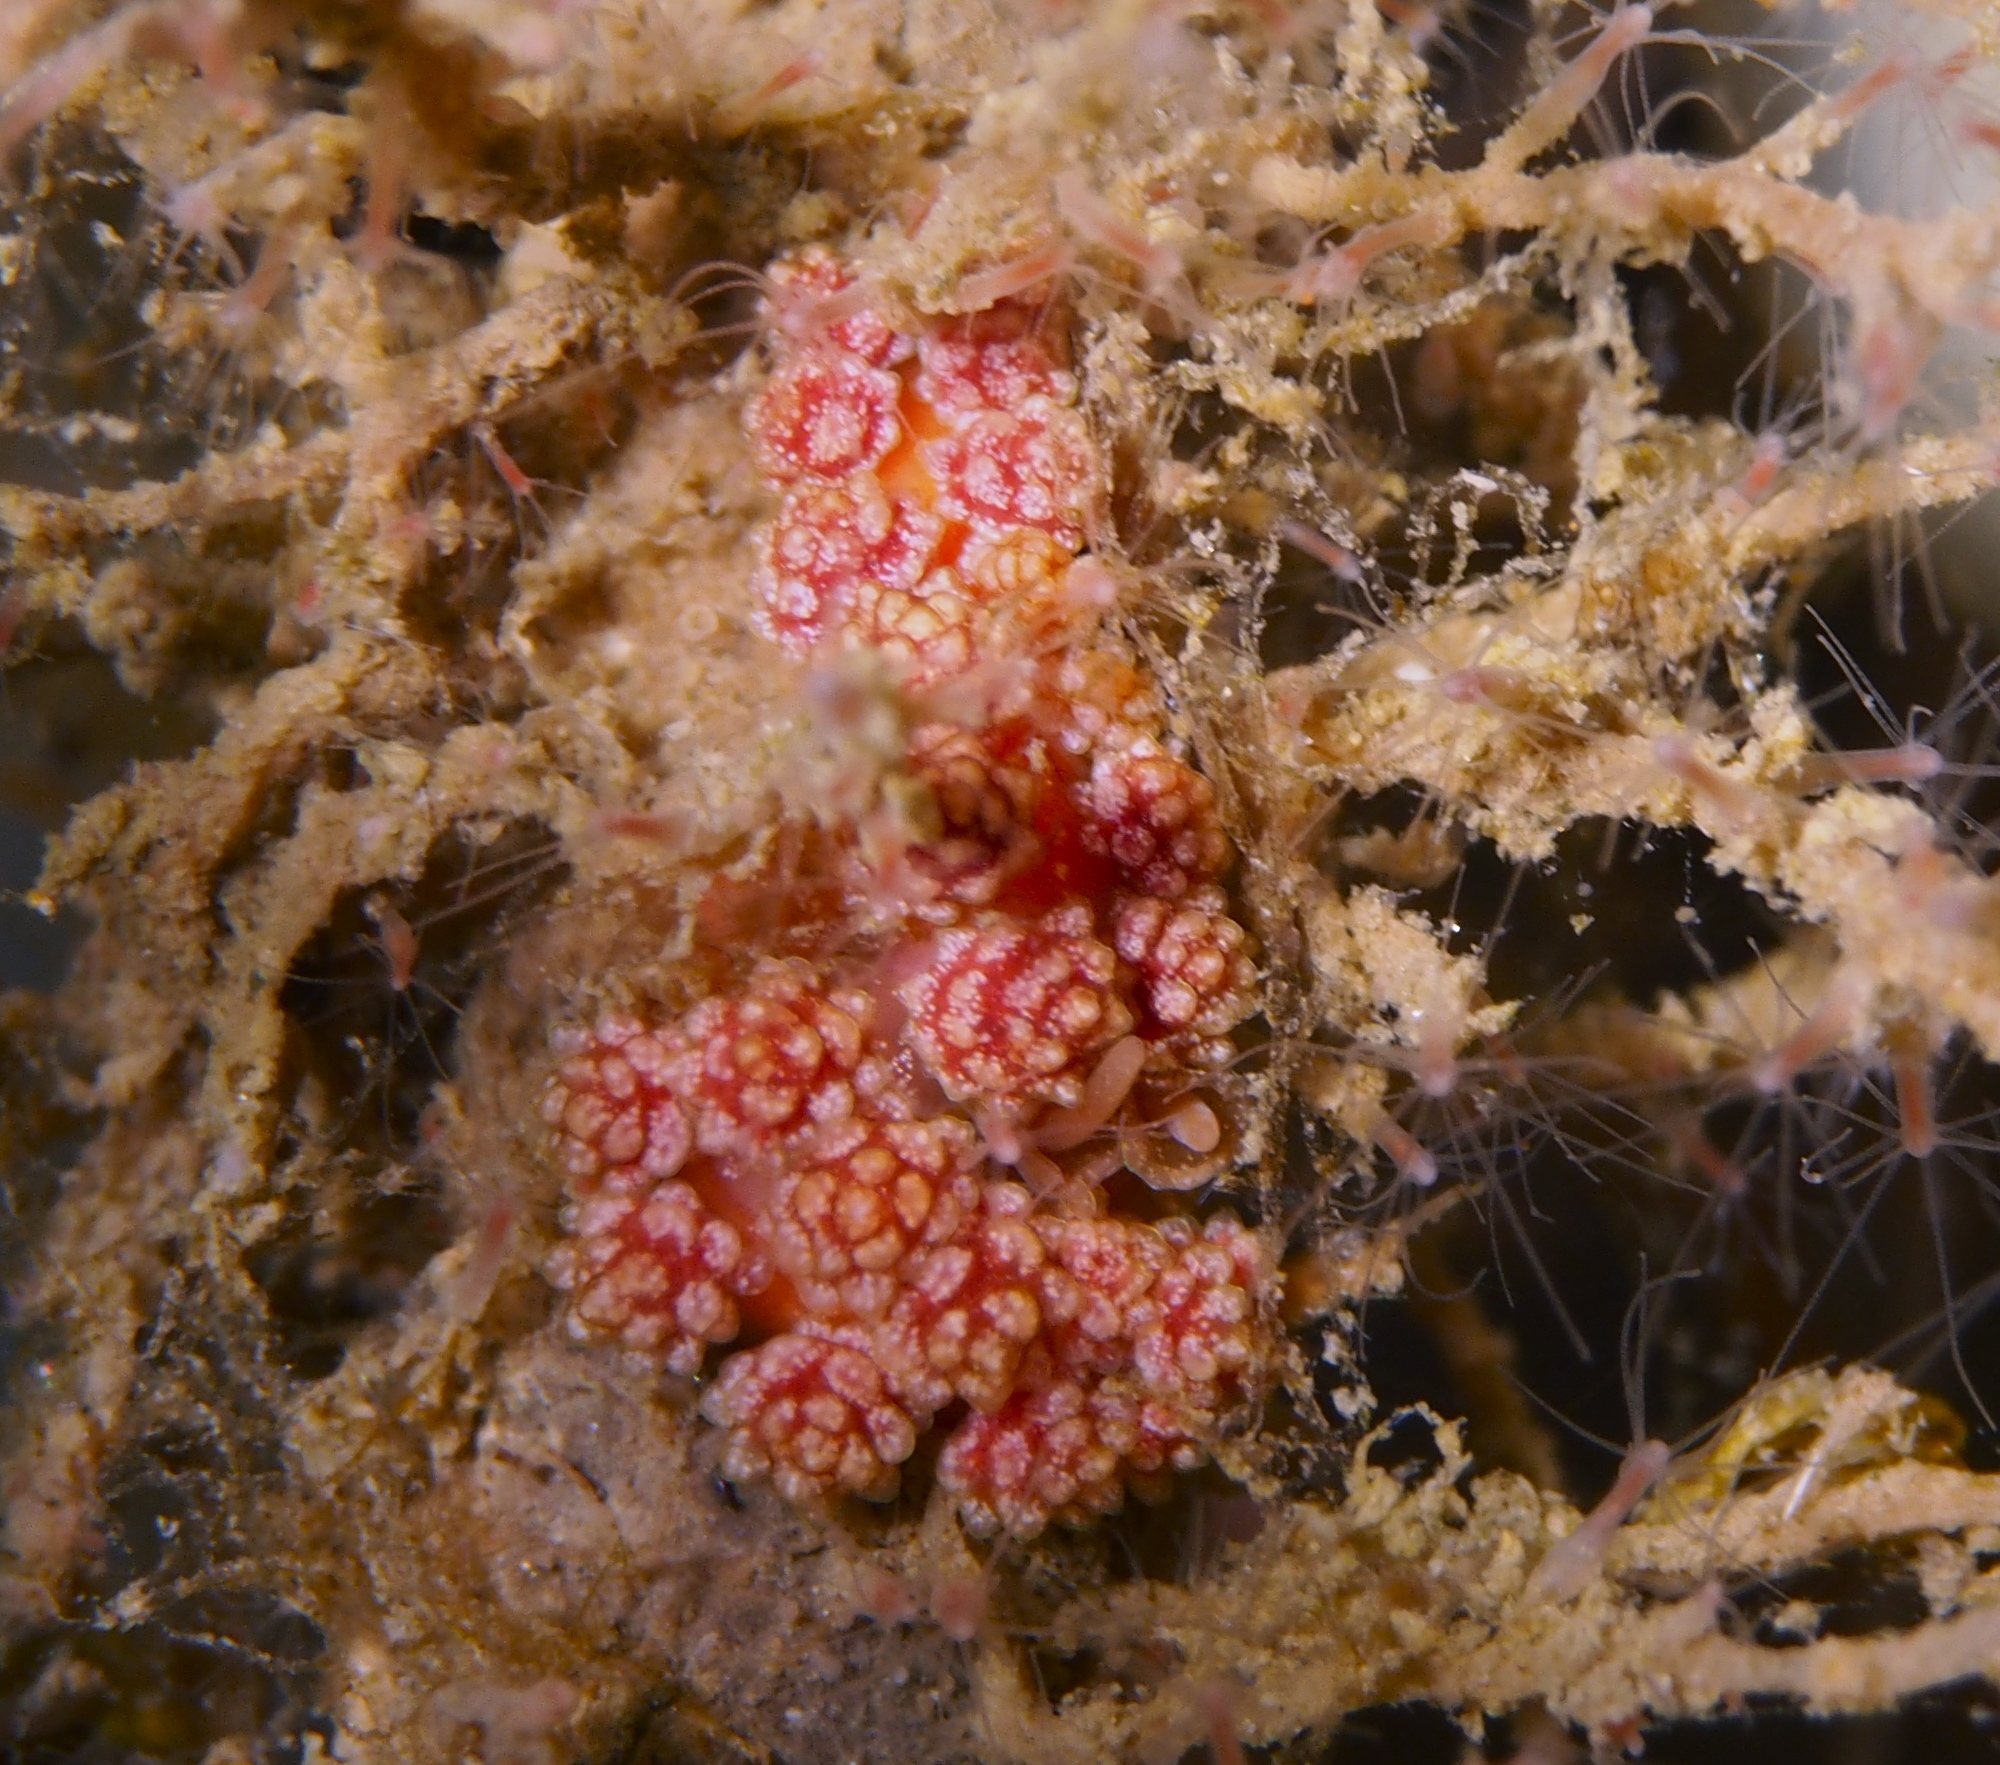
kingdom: Animalia
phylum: Mollusca
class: Gastropoda
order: Nudibranchia
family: Dotidae
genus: Doto
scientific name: Doto fragilis
